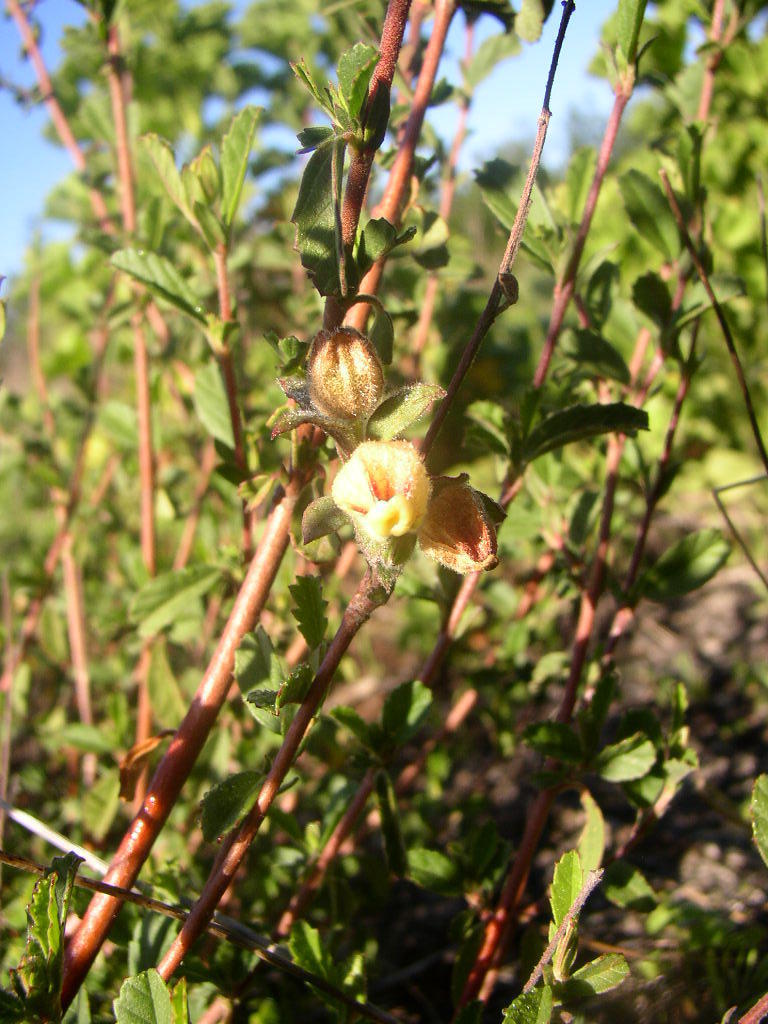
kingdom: Plantae
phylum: Tracheophyta
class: Magnoliopsida
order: Malvales
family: Malvaceae
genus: Hermannia
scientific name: Hermannia hyssopifolia
